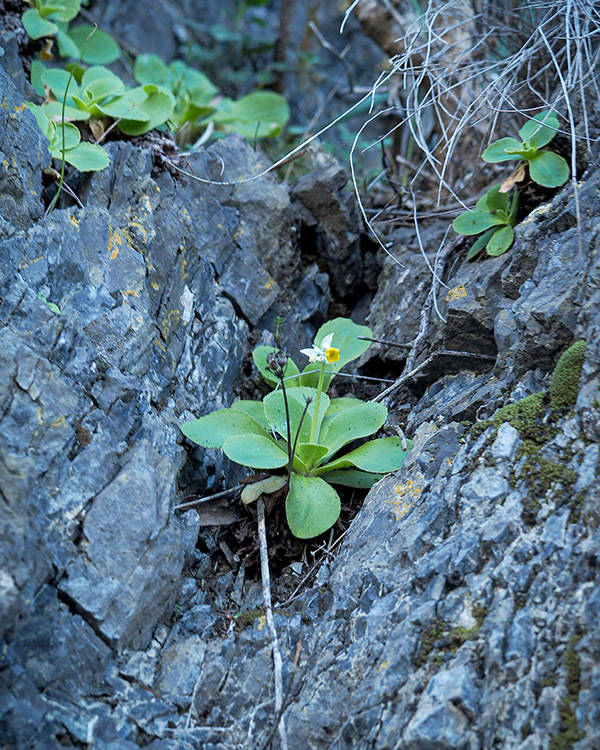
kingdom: Plantae
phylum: Tracheophyta
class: Magnoliopsida
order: Ericales
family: Primulaceae
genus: Primula
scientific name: Primula palinuri
